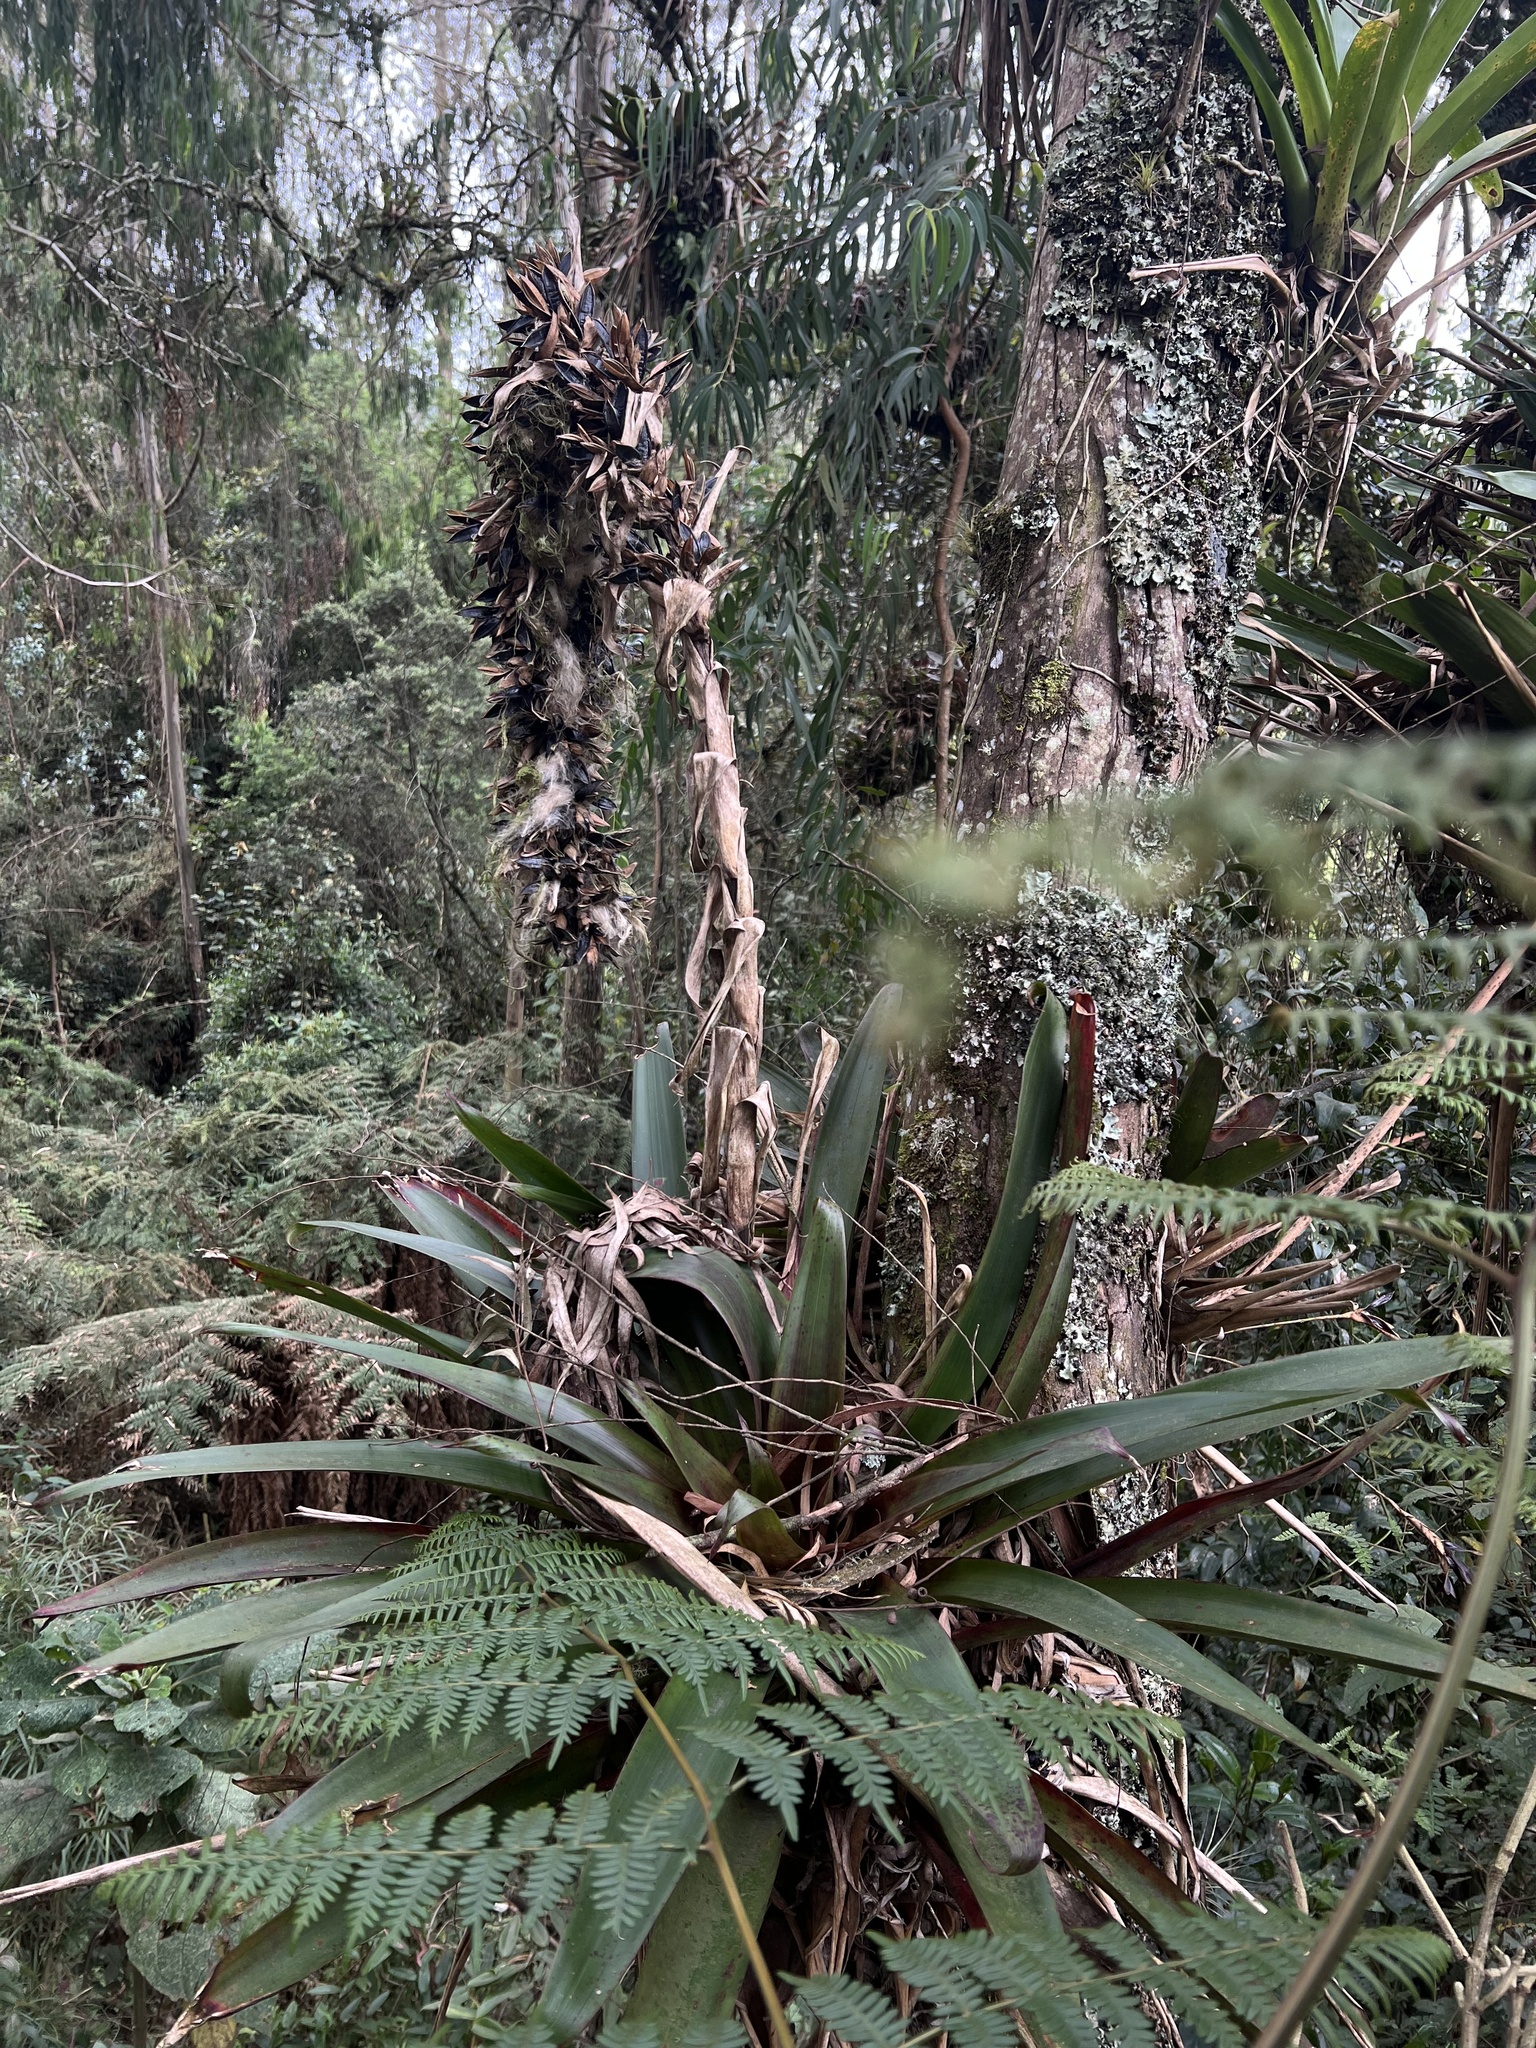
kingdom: Plantae
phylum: Tracheophyta
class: Liliopsida
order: Poales
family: Bromeliaceae
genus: Tillandsia
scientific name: Tillandsia pastensis
